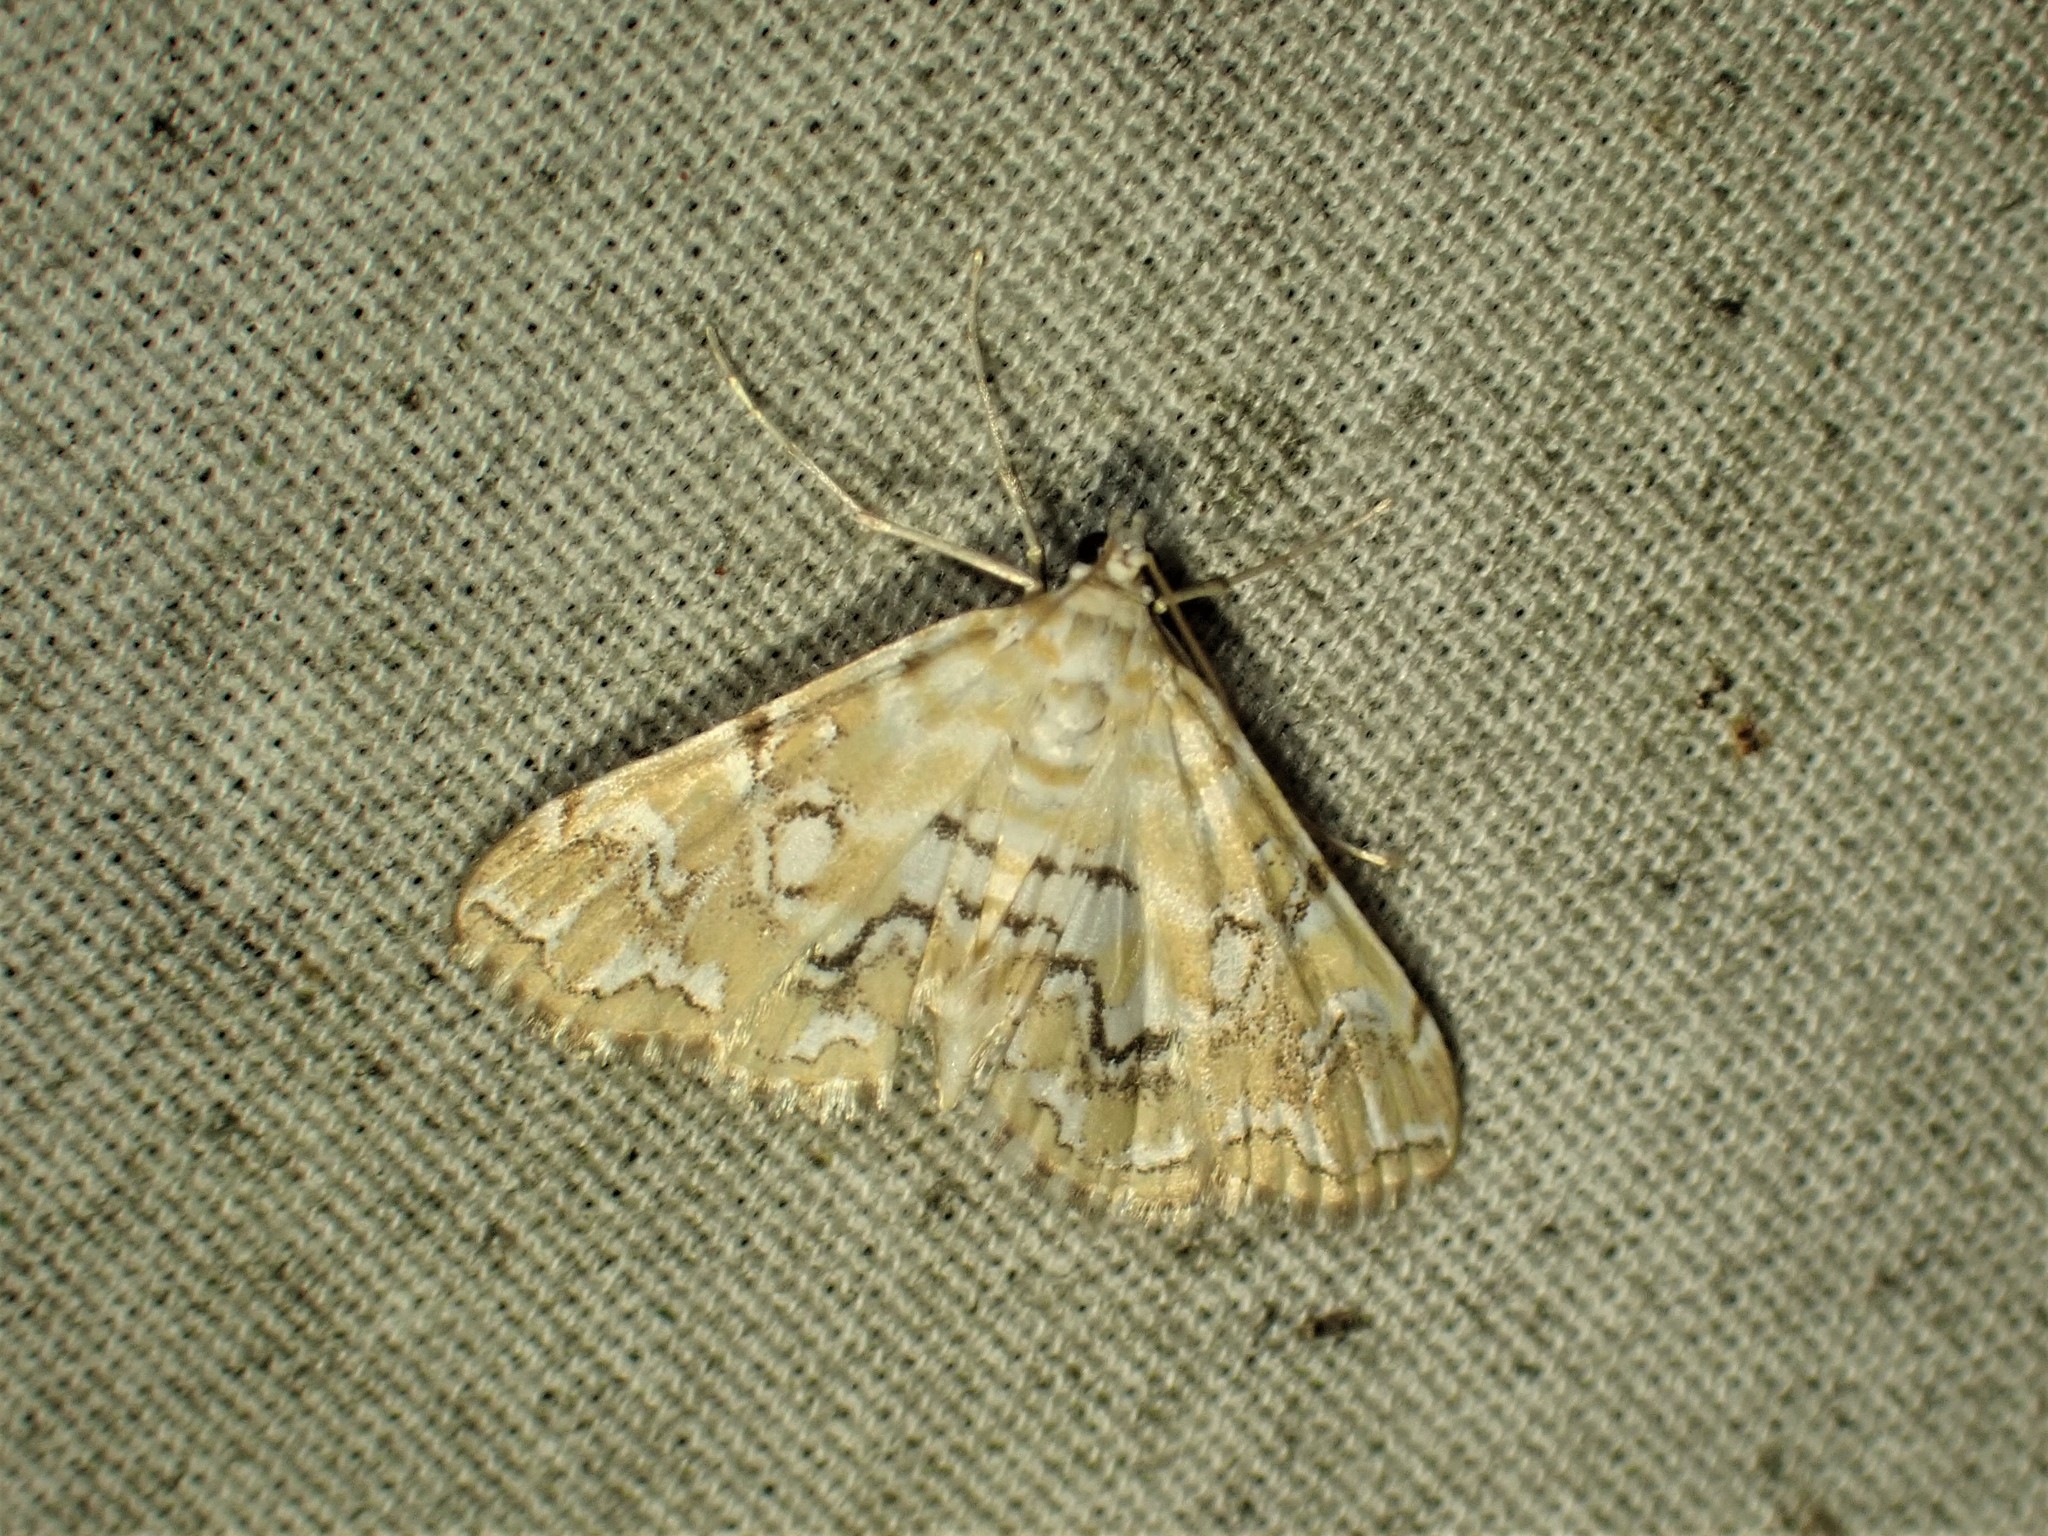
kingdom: Animalia
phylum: Arthropoda
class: Insecta
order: Lepidoptera
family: Crambidae
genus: Elophila
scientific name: Elophila icciusalis
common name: Pondside pyralid moth
